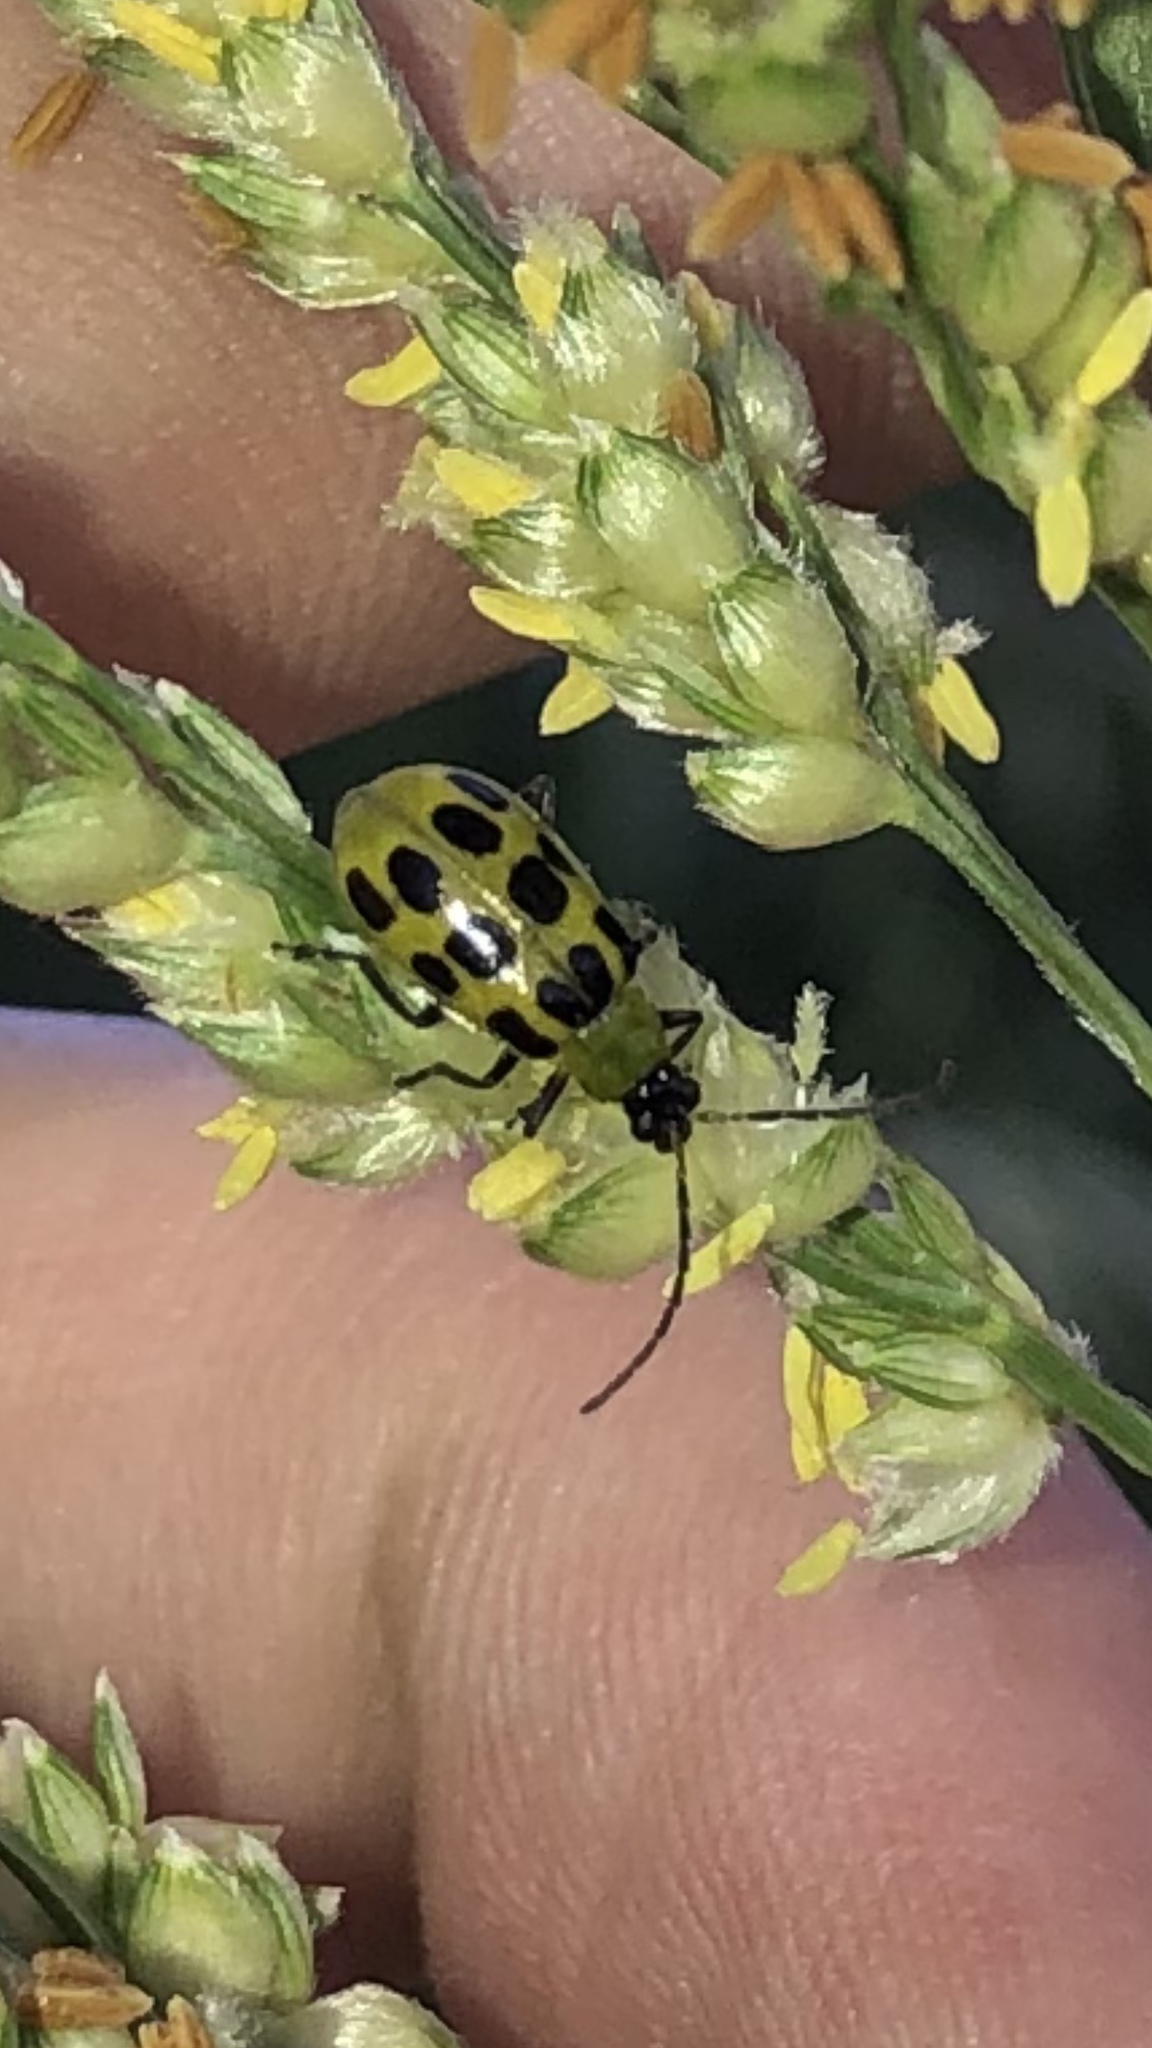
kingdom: Animalia
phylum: Arthropoda
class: Insecta
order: Coleoptera
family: Chrysomelidae
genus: Diabrotica
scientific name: Diabrotica undecimpunctata
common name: Spotted cucumber beetle
